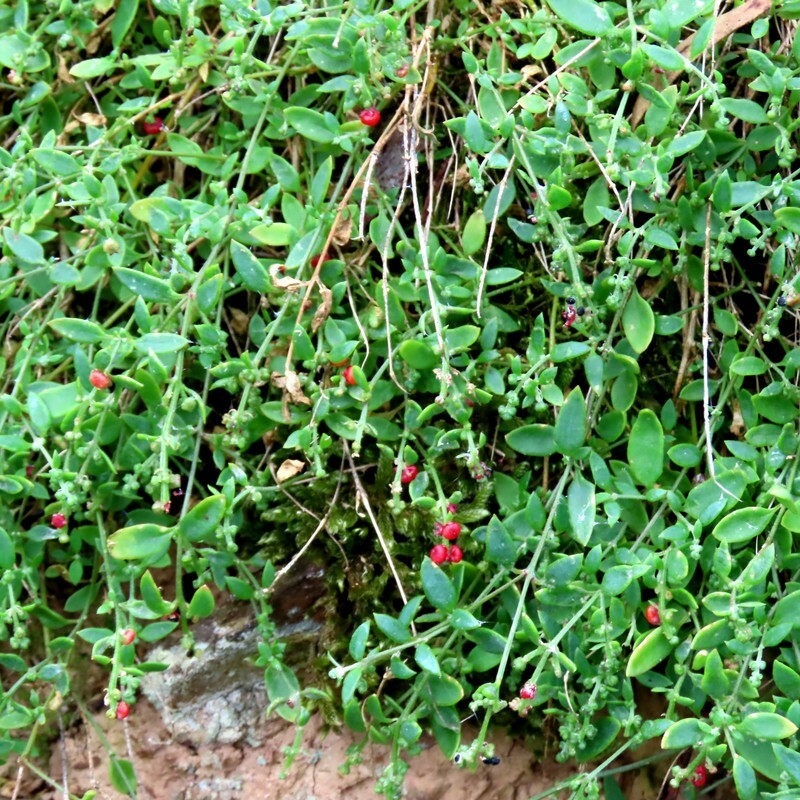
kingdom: Plantae
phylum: Tracheophyta
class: Magnoliopsida
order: Caryophyllales
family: Amaranthaceae
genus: Chenopodium
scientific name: Chenopodium nutans
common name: Climbing-saltbush
